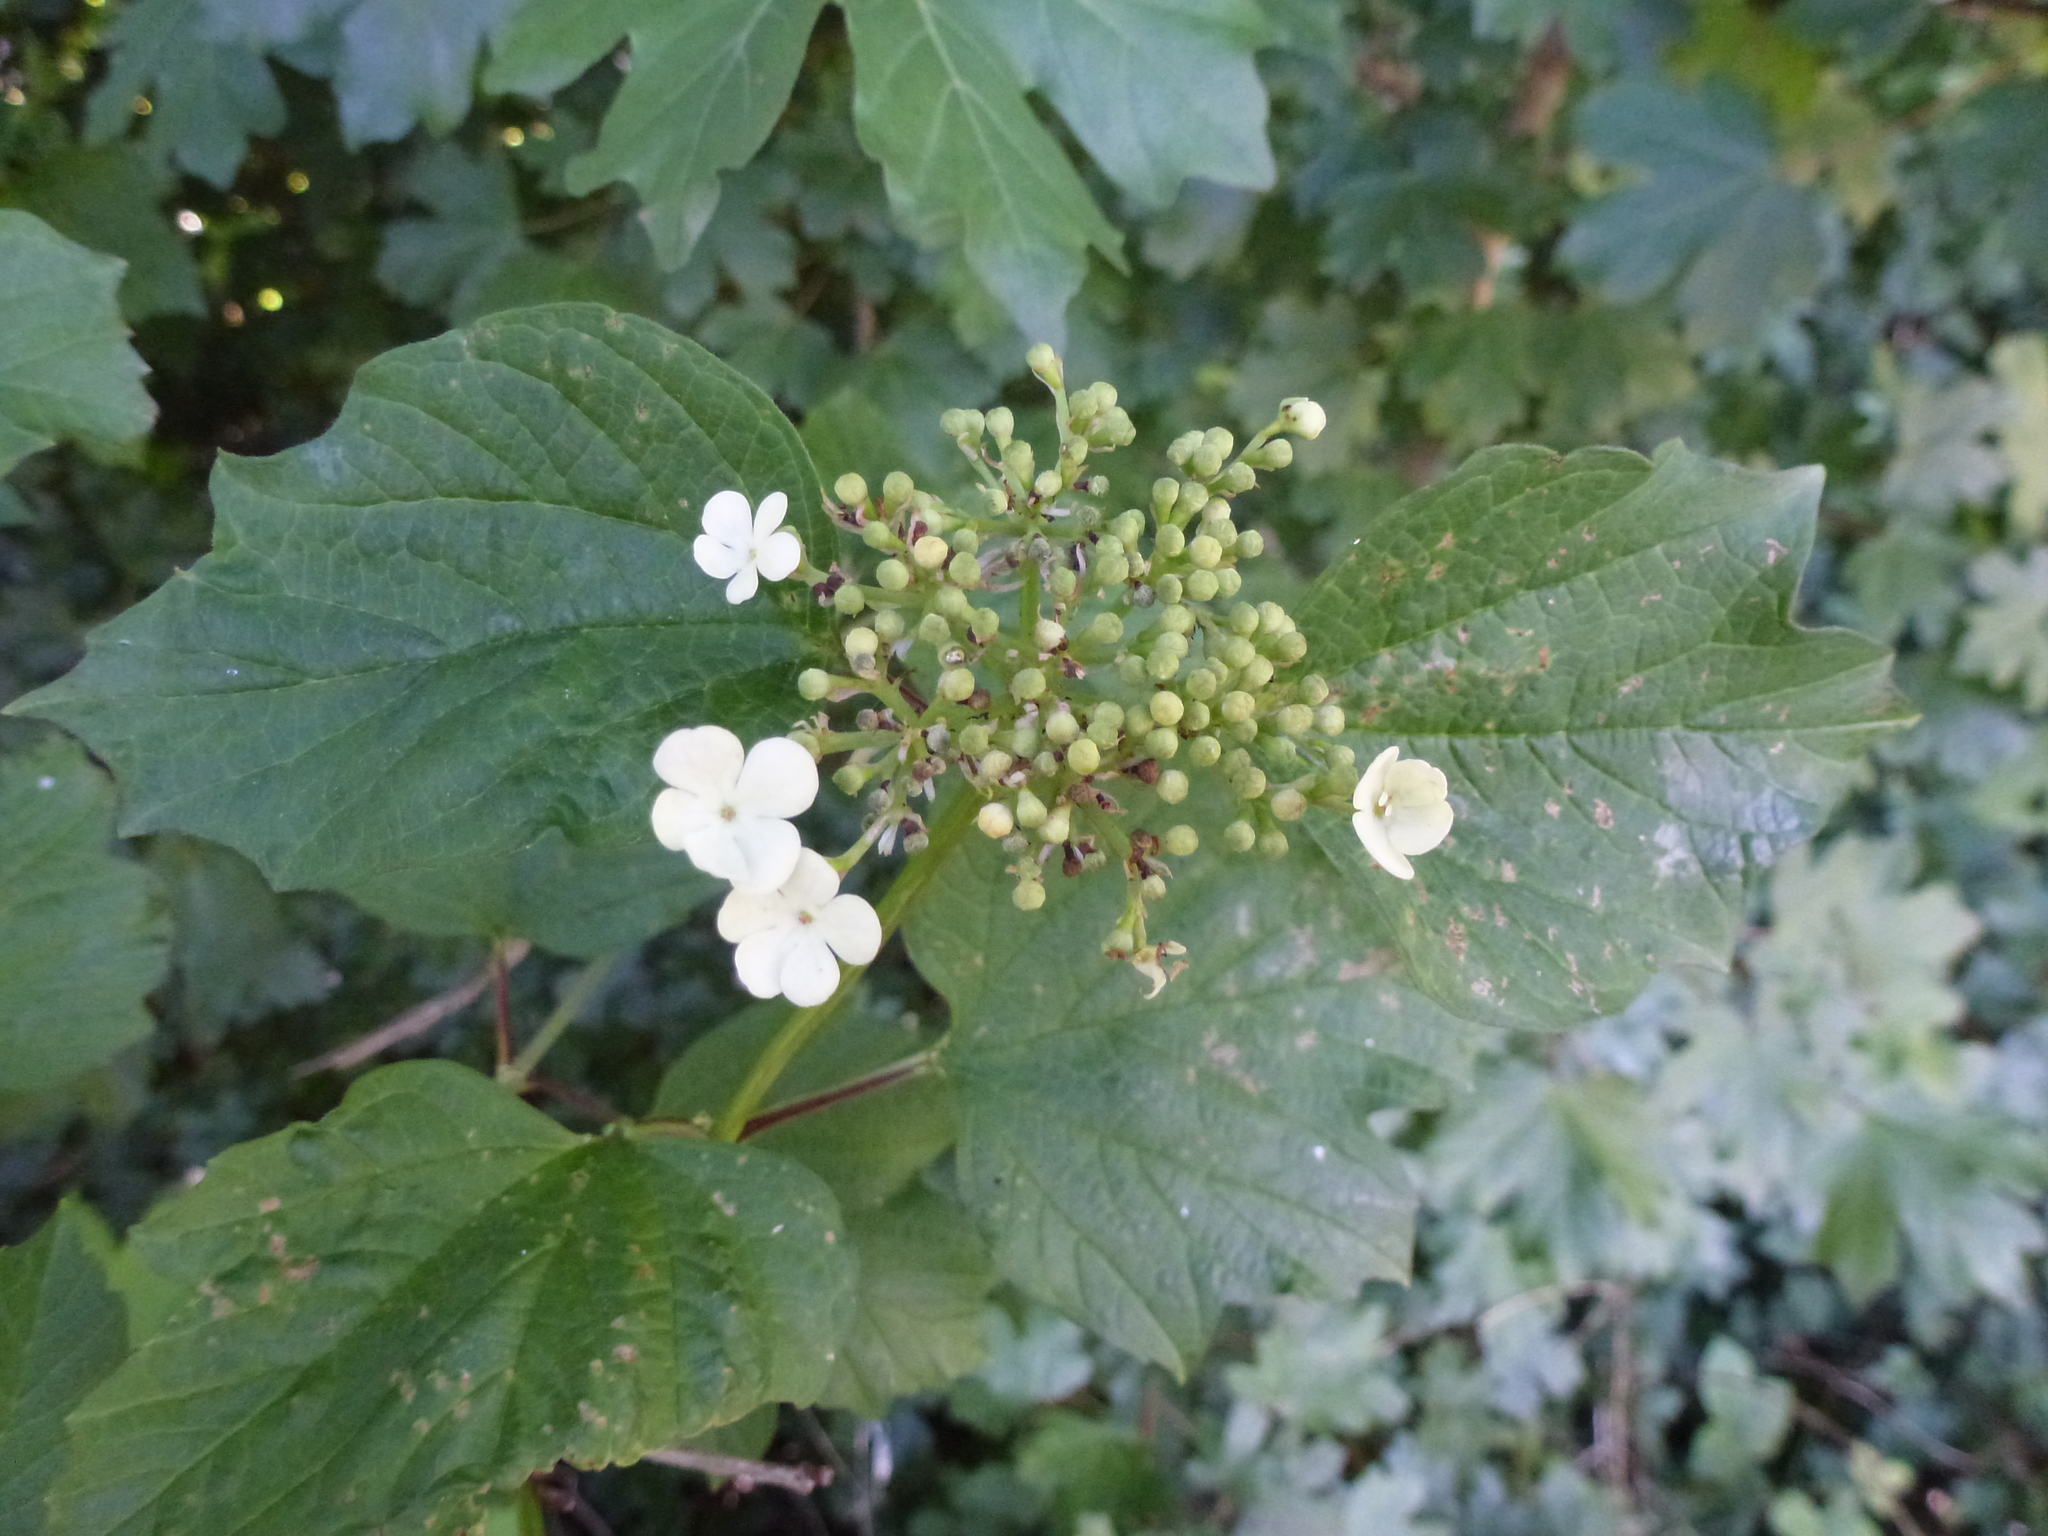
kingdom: Plantae
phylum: Tracheophyta
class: Magnoliopsida
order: Dipsacales
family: Viburnaceae
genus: Viburnum
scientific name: Viburnum opulus
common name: Guelder-rose
